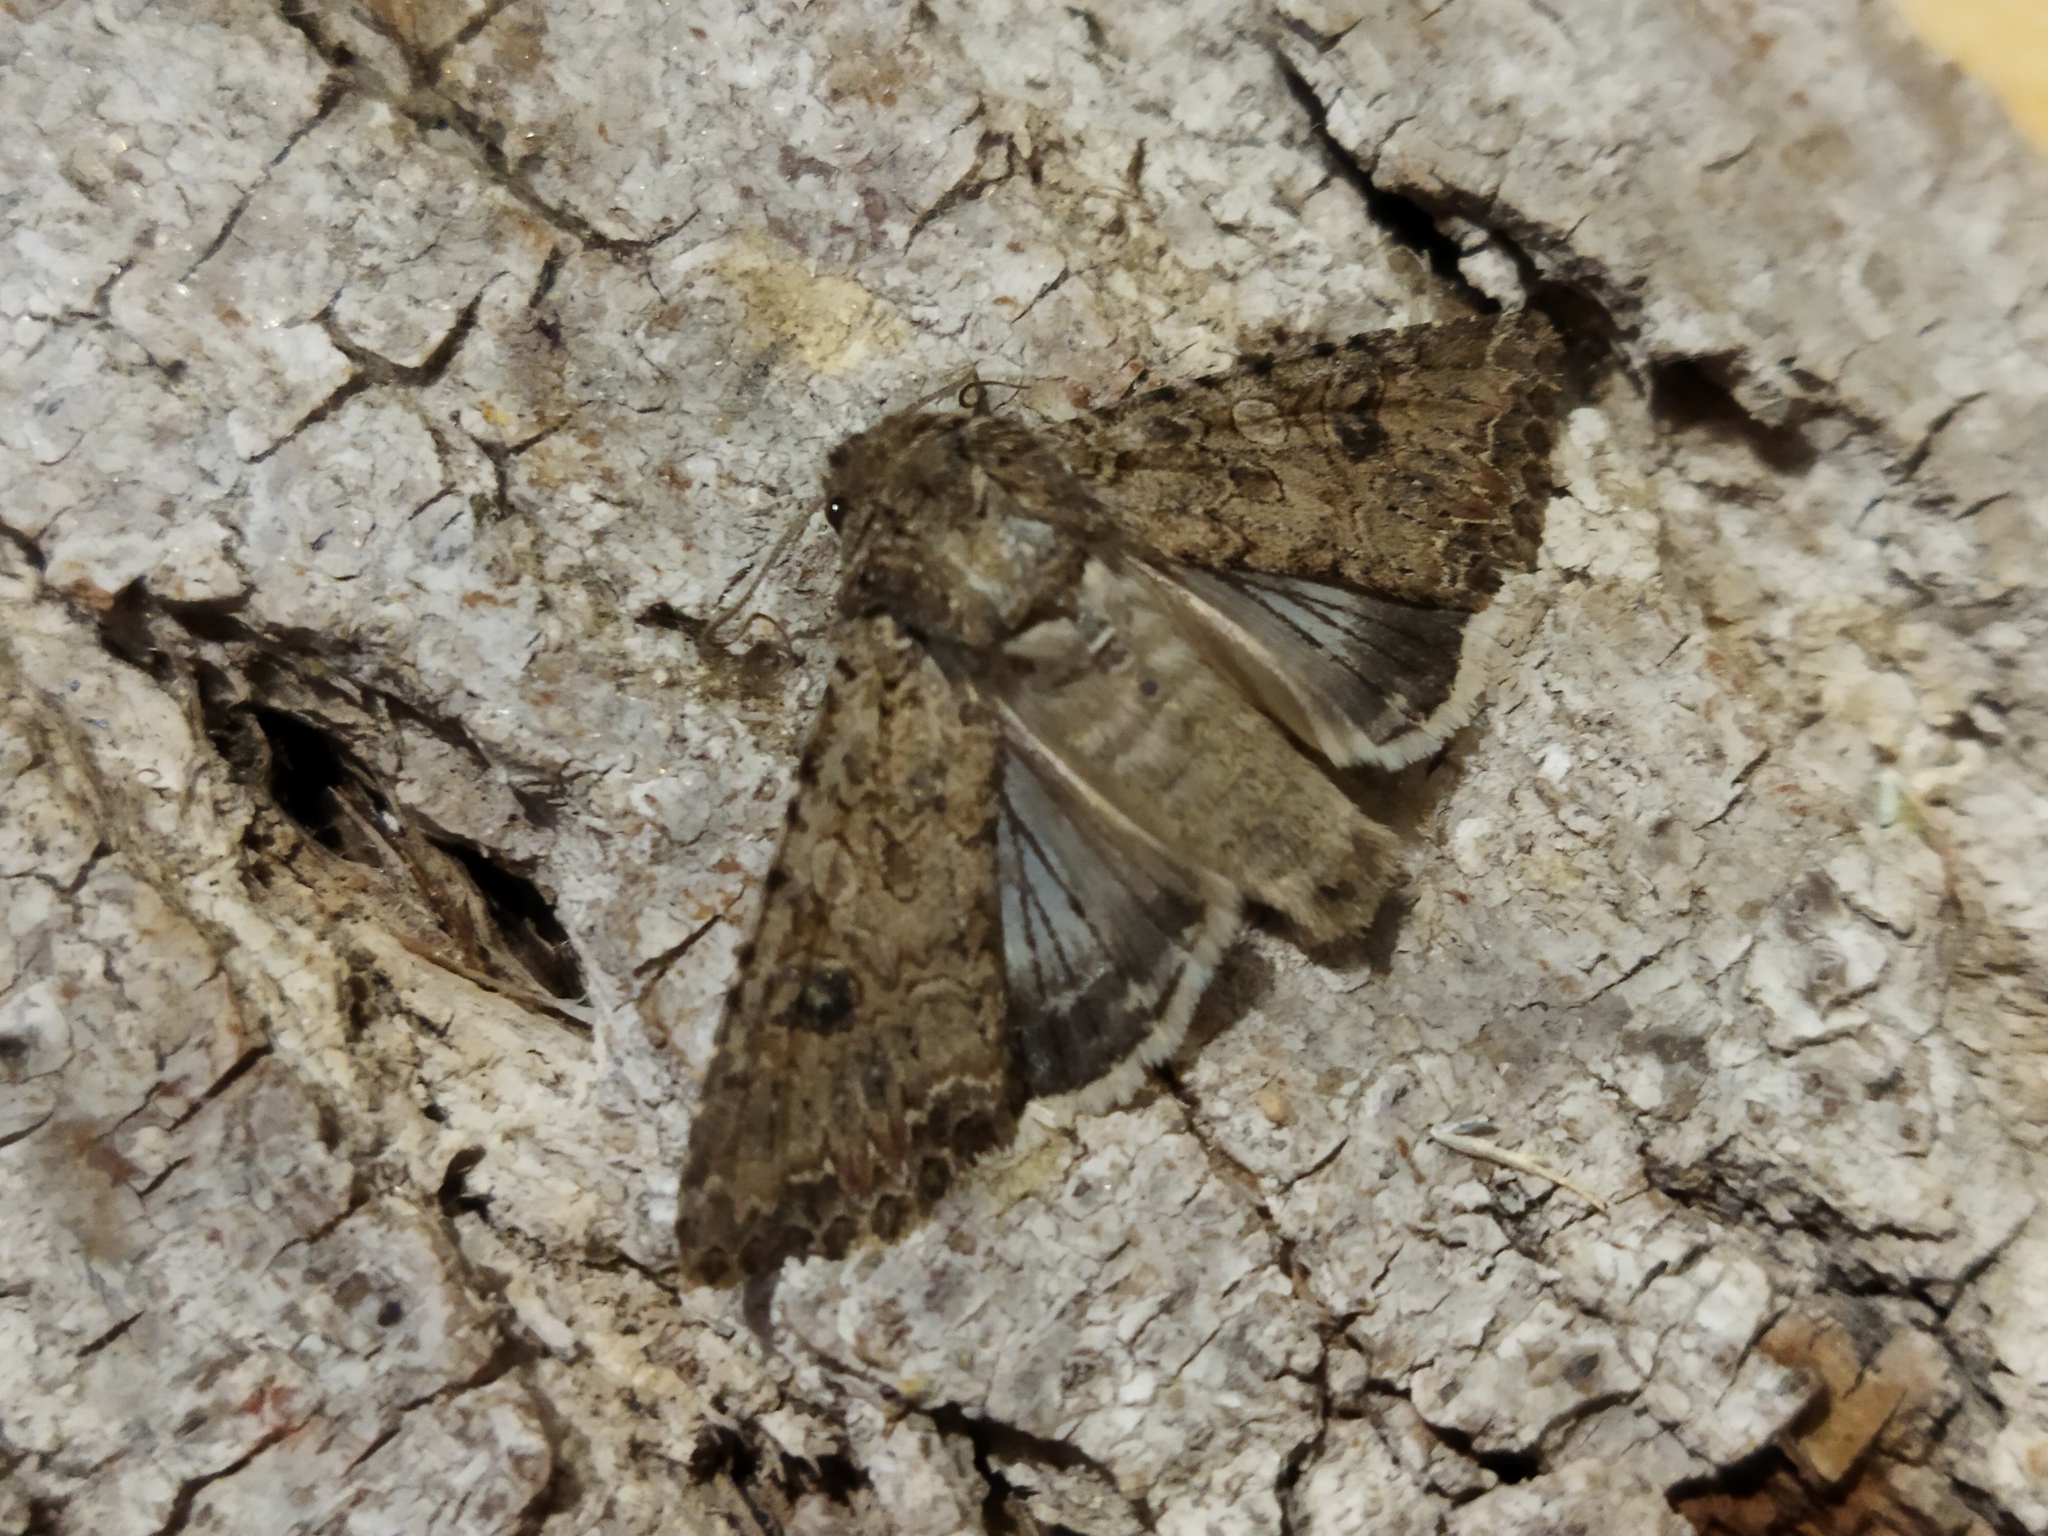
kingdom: Animalia
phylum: Arthropoda
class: Insecta
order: Lepidoptera
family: Noctuidae
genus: Anarta
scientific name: Anarta trifolii
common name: Clover cutworm moth
